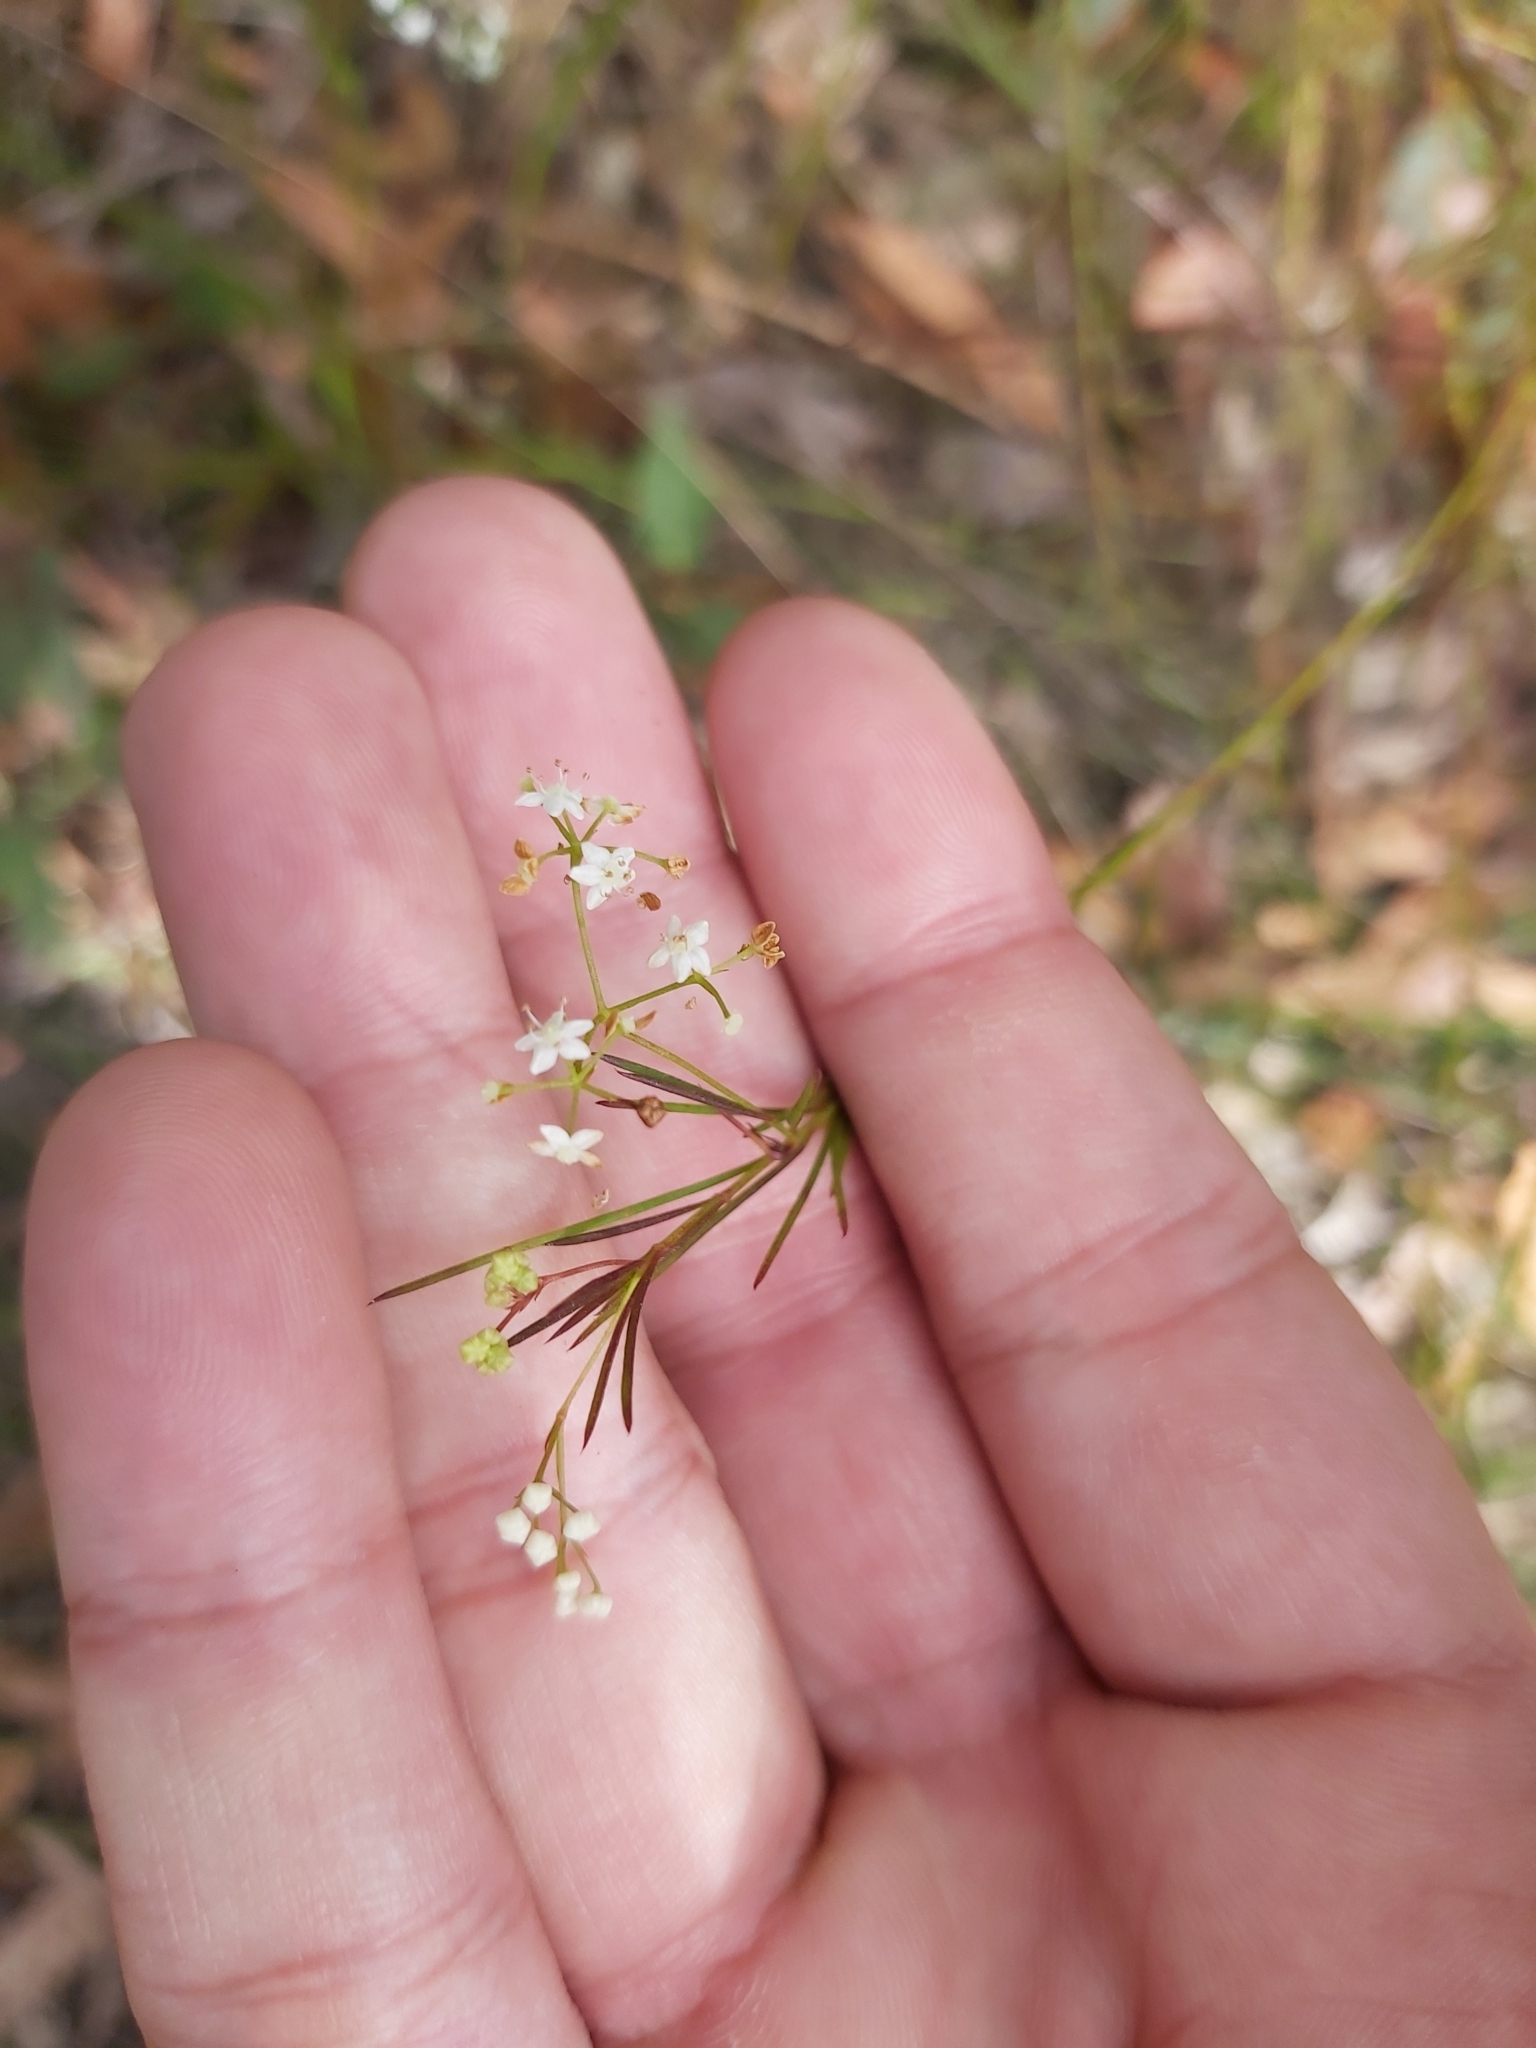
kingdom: Plantae
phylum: Tracheophyta
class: Magnoliopsida
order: Apiales
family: Apiaceae
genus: Platysace
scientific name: Platysace linearifolia
